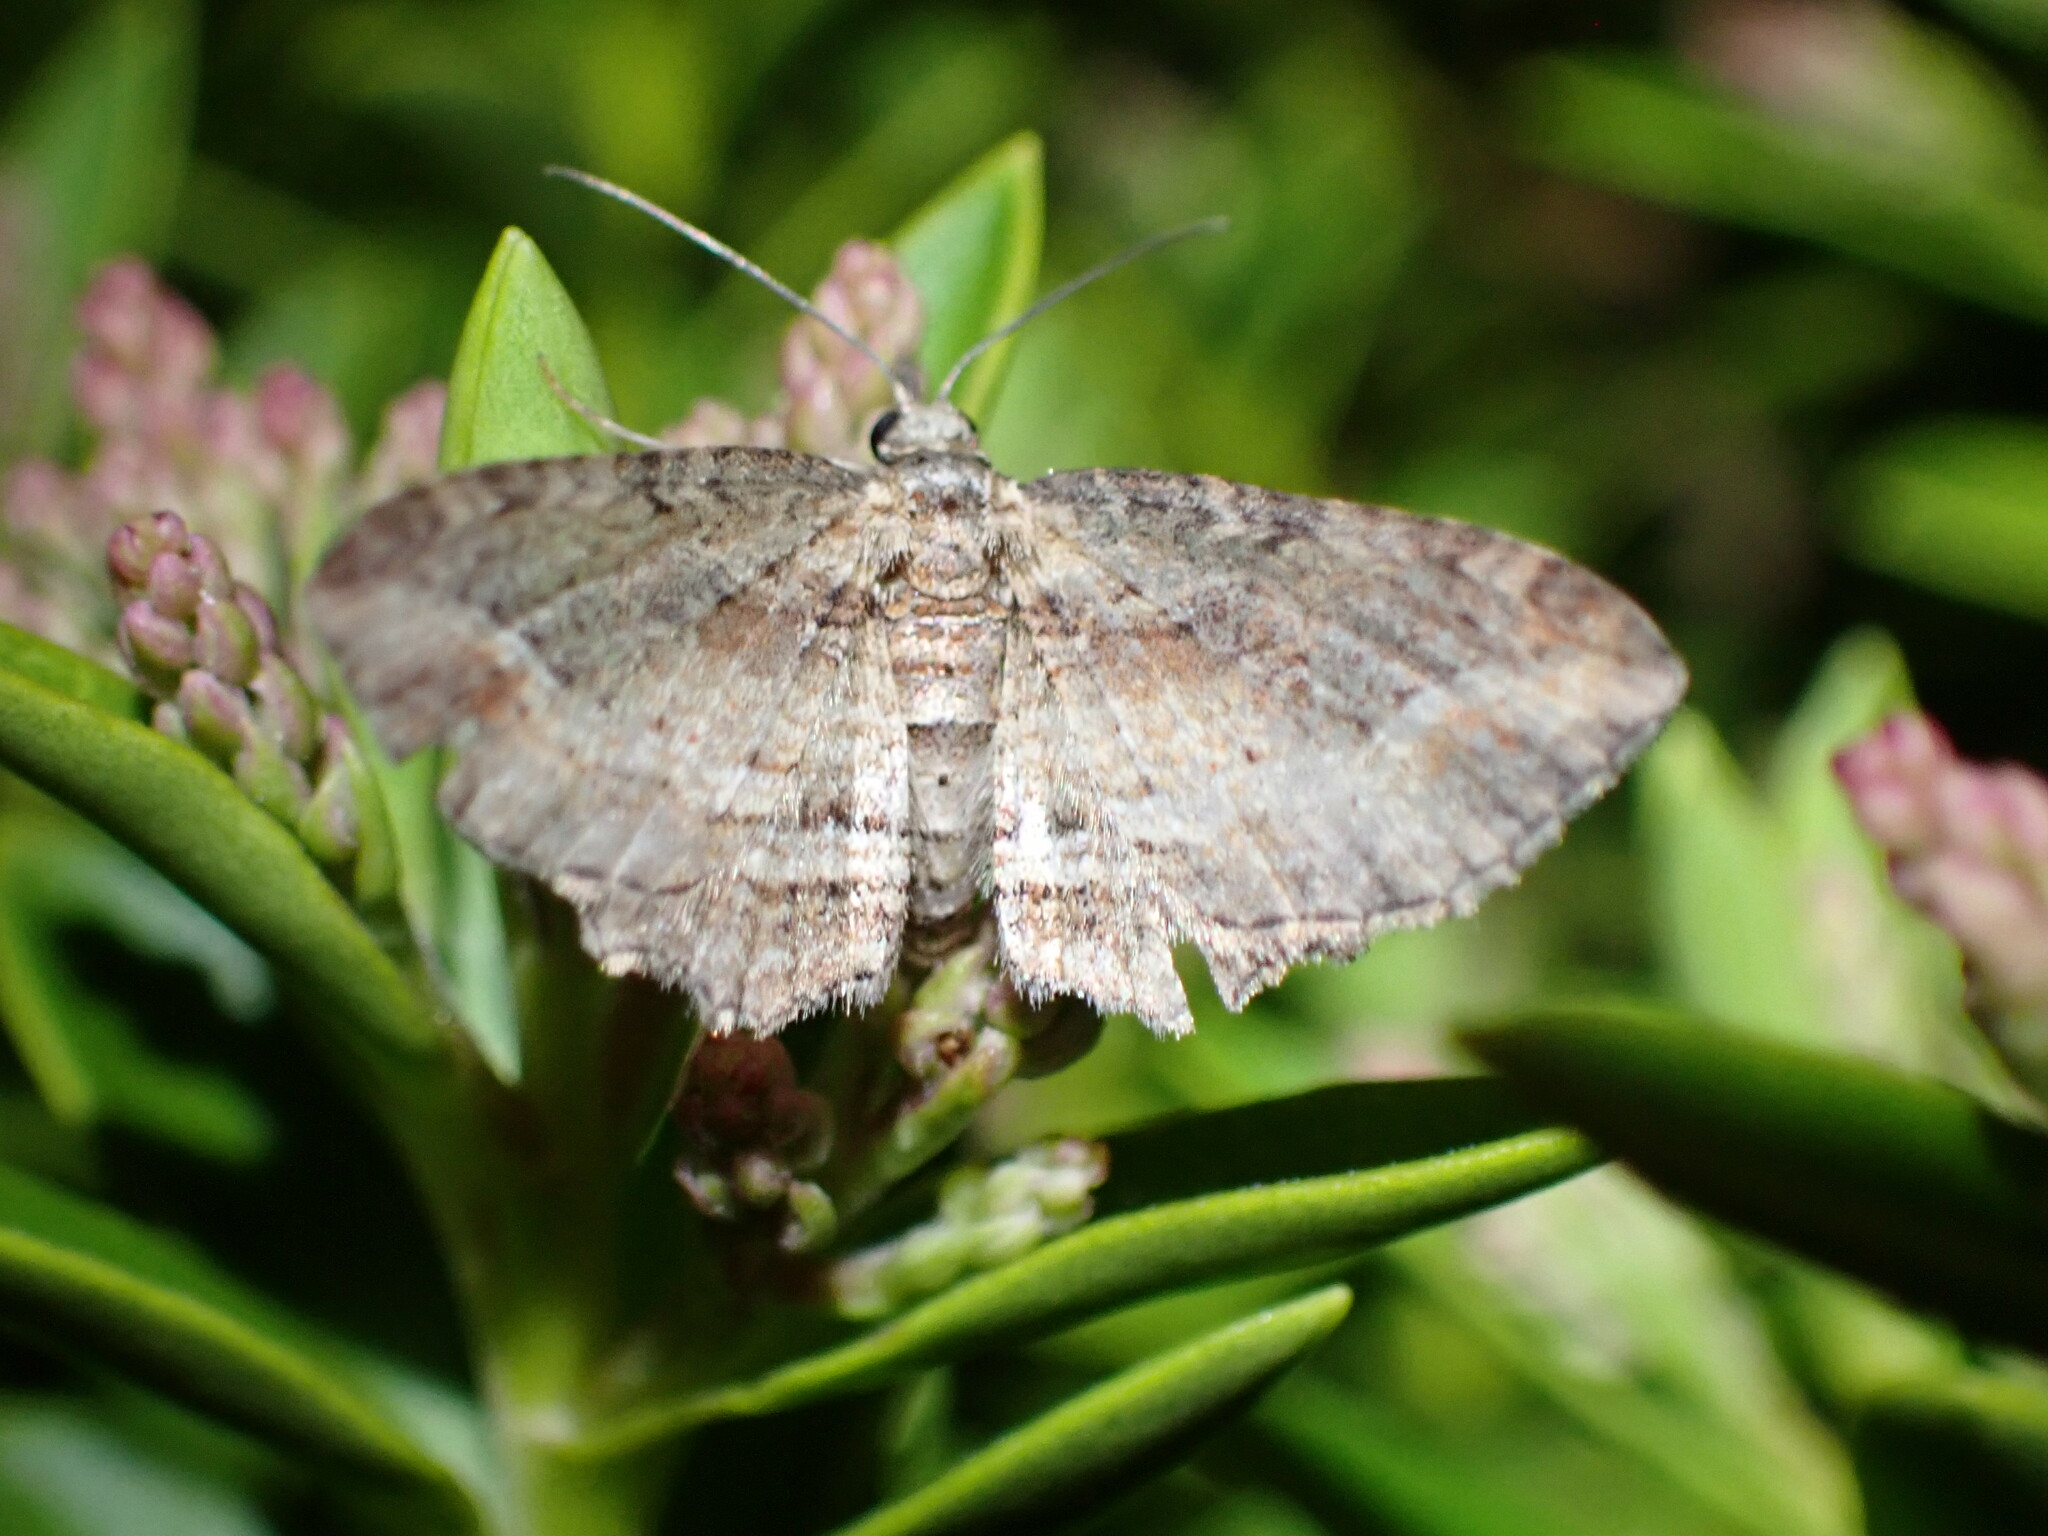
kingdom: Animalia
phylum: Arthropoda
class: Insecta
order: Lepidoptera
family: Geometridae
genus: Chloroclystis
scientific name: Chloroclystis filata
